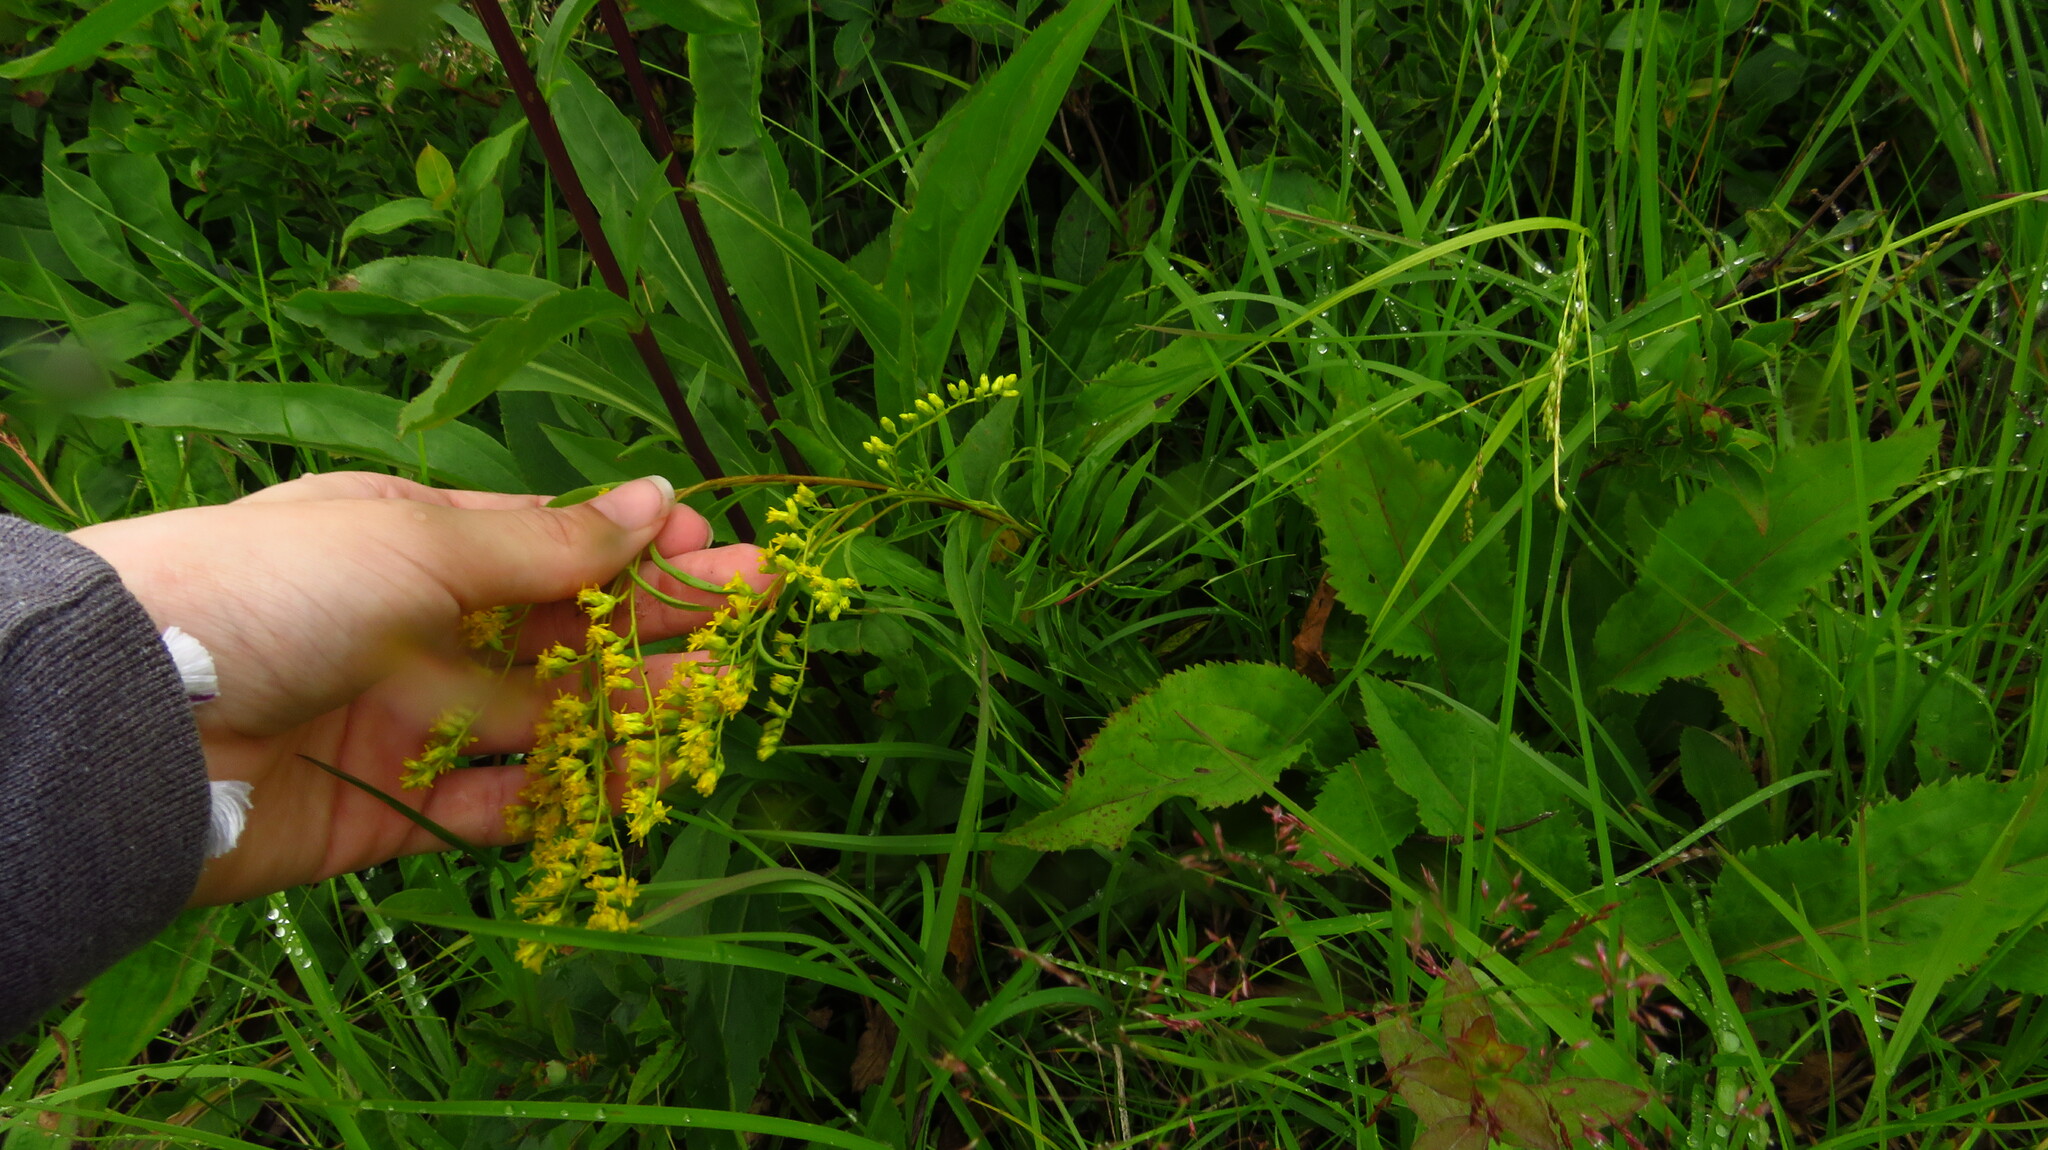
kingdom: Plantae
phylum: Tracheophyta
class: Magnoliopsida
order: Asterales
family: Asteraceae
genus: Solidago
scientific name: Solidago juncea
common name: Early goldenrod
